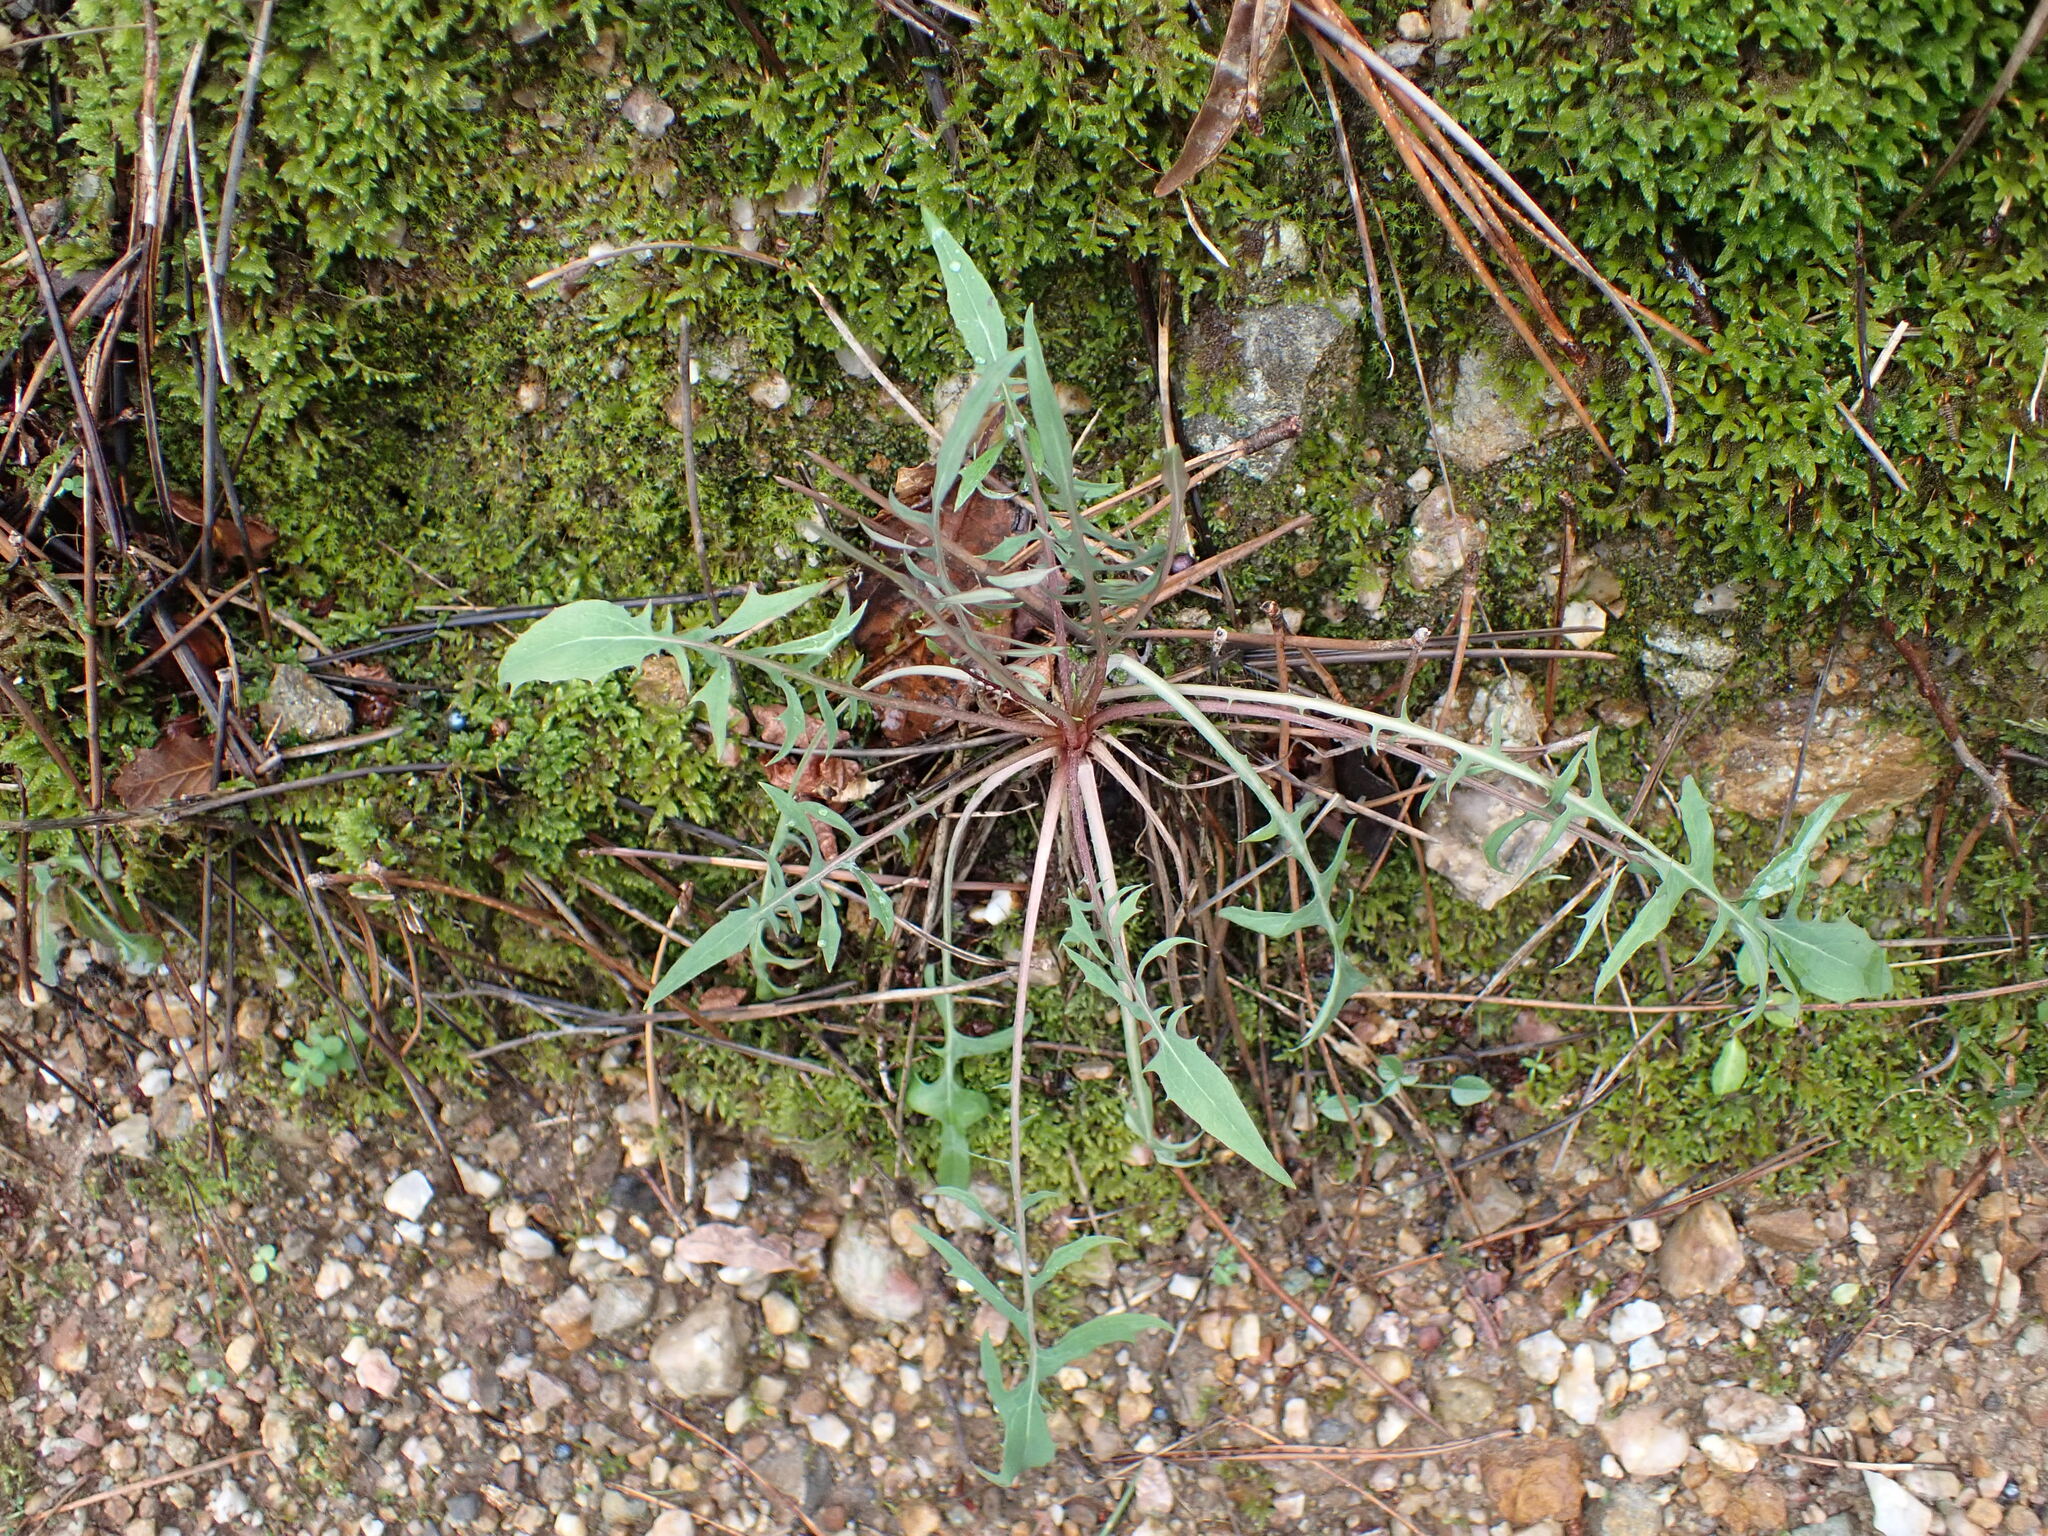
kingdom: Plantae
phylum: Tracheophyta
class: Magnoliopsida
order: Asterales
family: Asteraceae
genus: Lactuca
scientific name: Lactuca viminea
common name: Pliant lettuce
